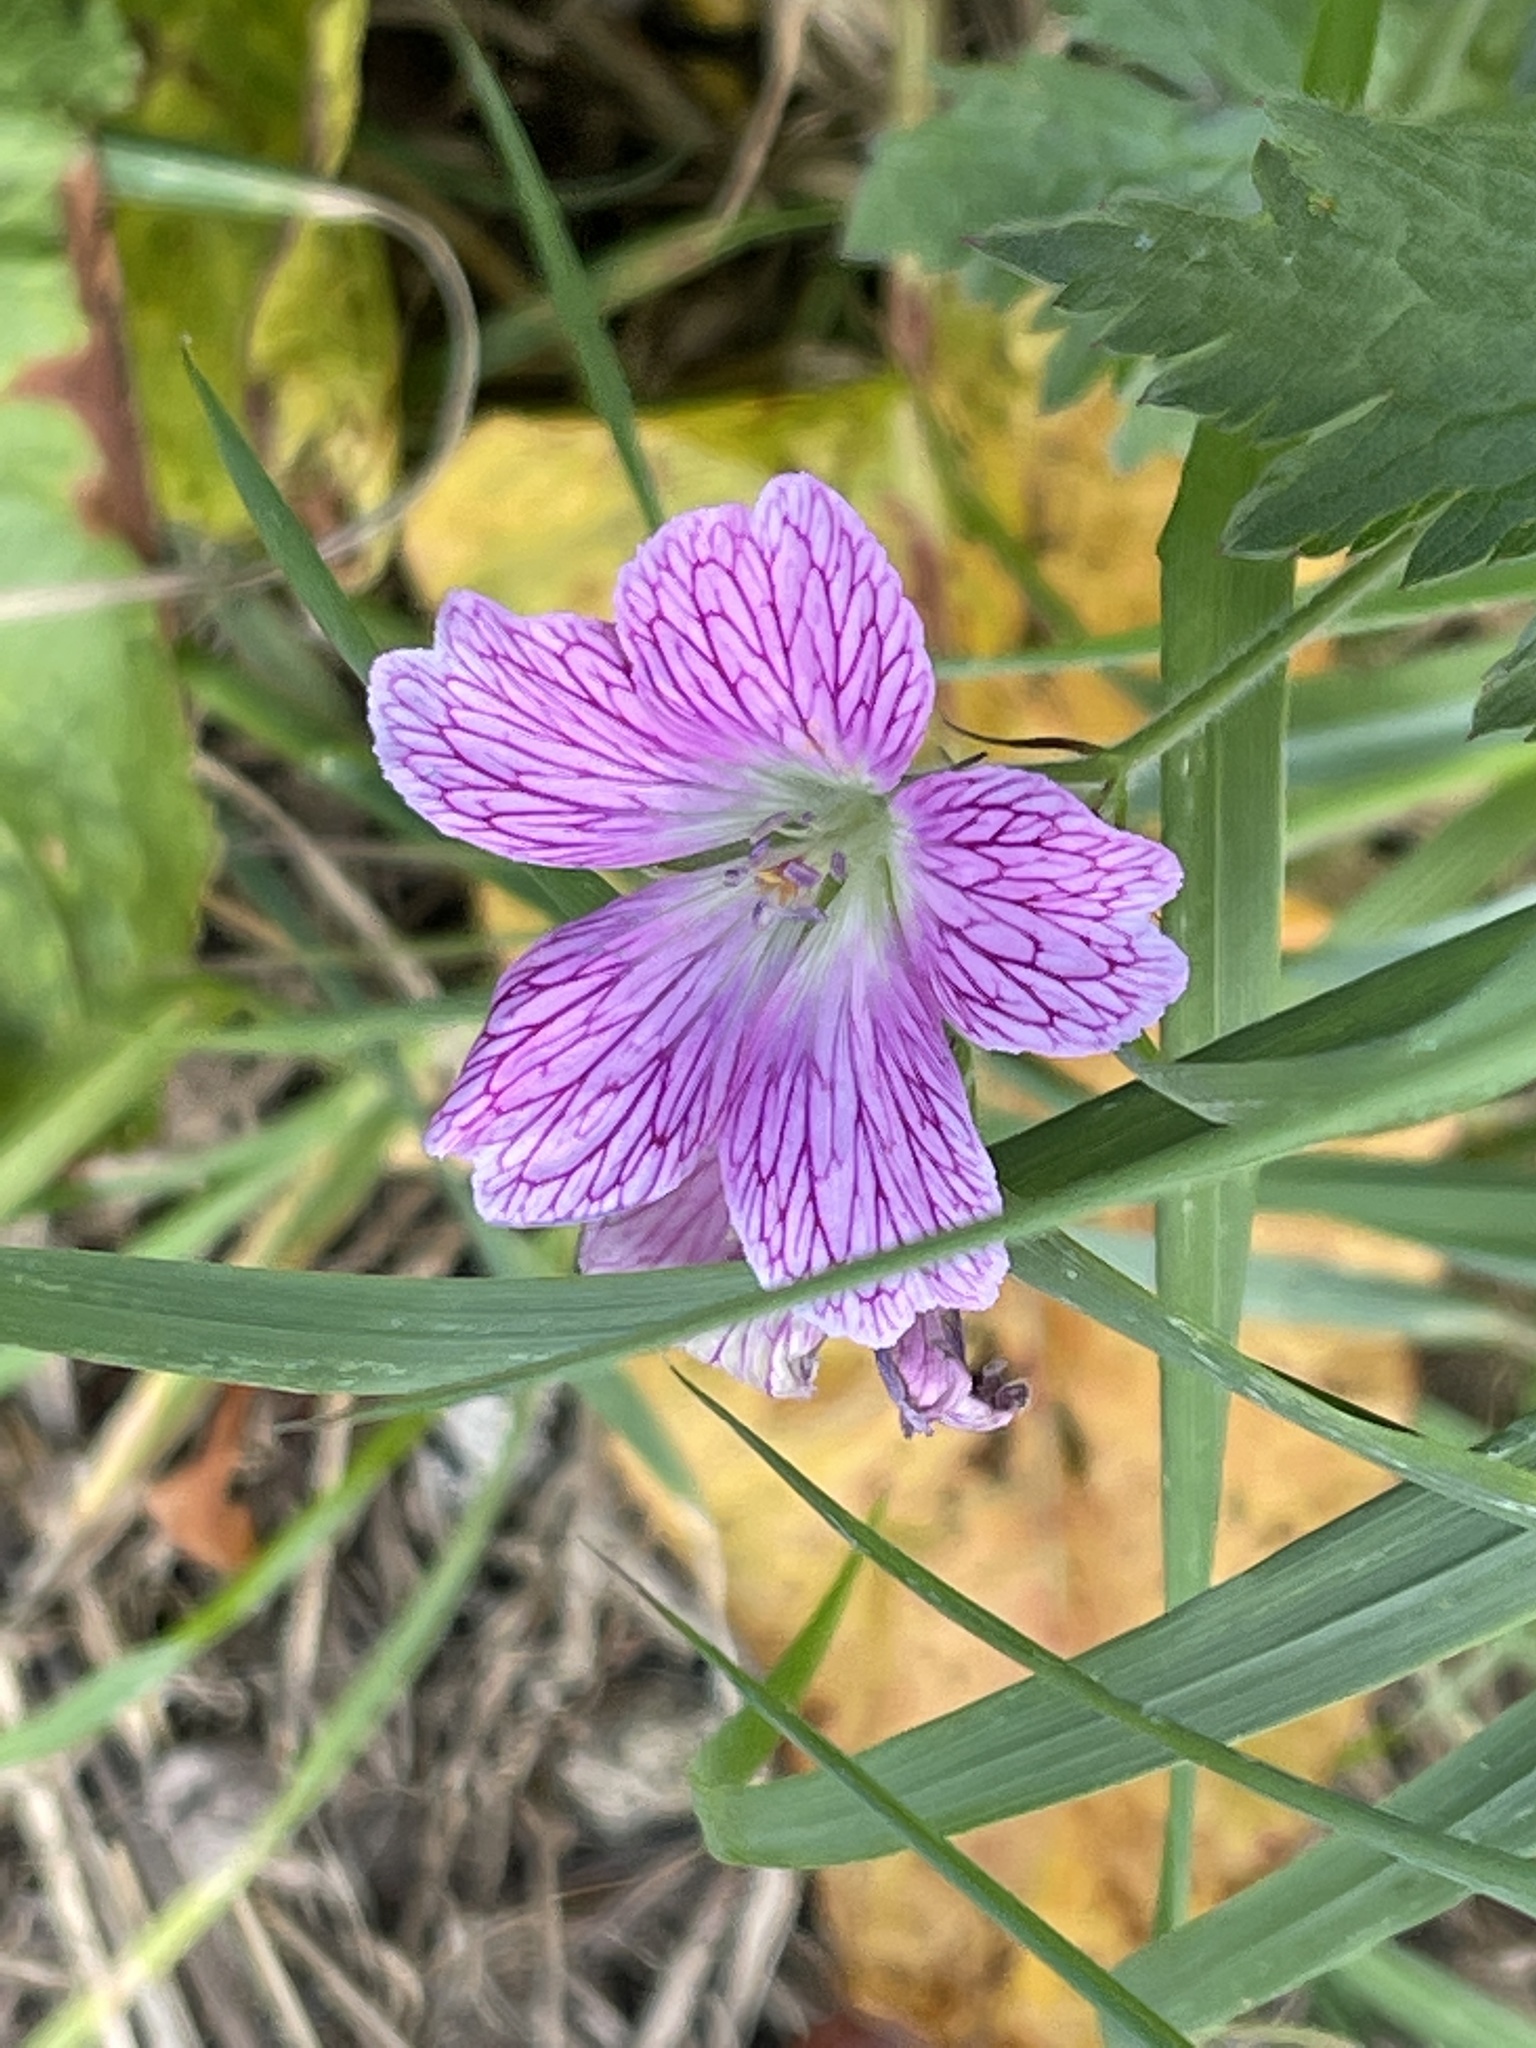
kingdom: Plantae
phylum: Tracheophyta
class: Magnoliopsida
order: Geraniales
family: Geraniaceae
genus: Geranium
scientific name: Geranium oxonianum
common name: Druce's crane's-bill
